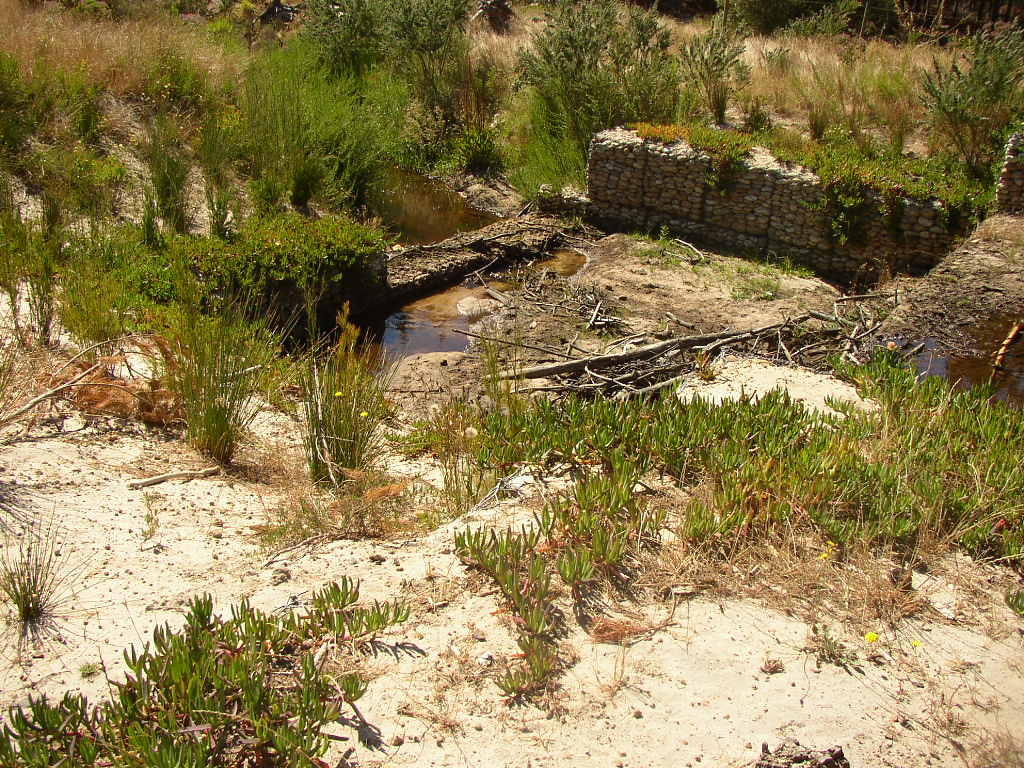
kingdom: Plantae
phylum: Tracheophyta
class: Magnoliopsida
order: Caryophyllales
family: Aizoaceae
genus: Carpobrotus
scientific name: Carpobrotus edulis
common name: Hottentot-fig
